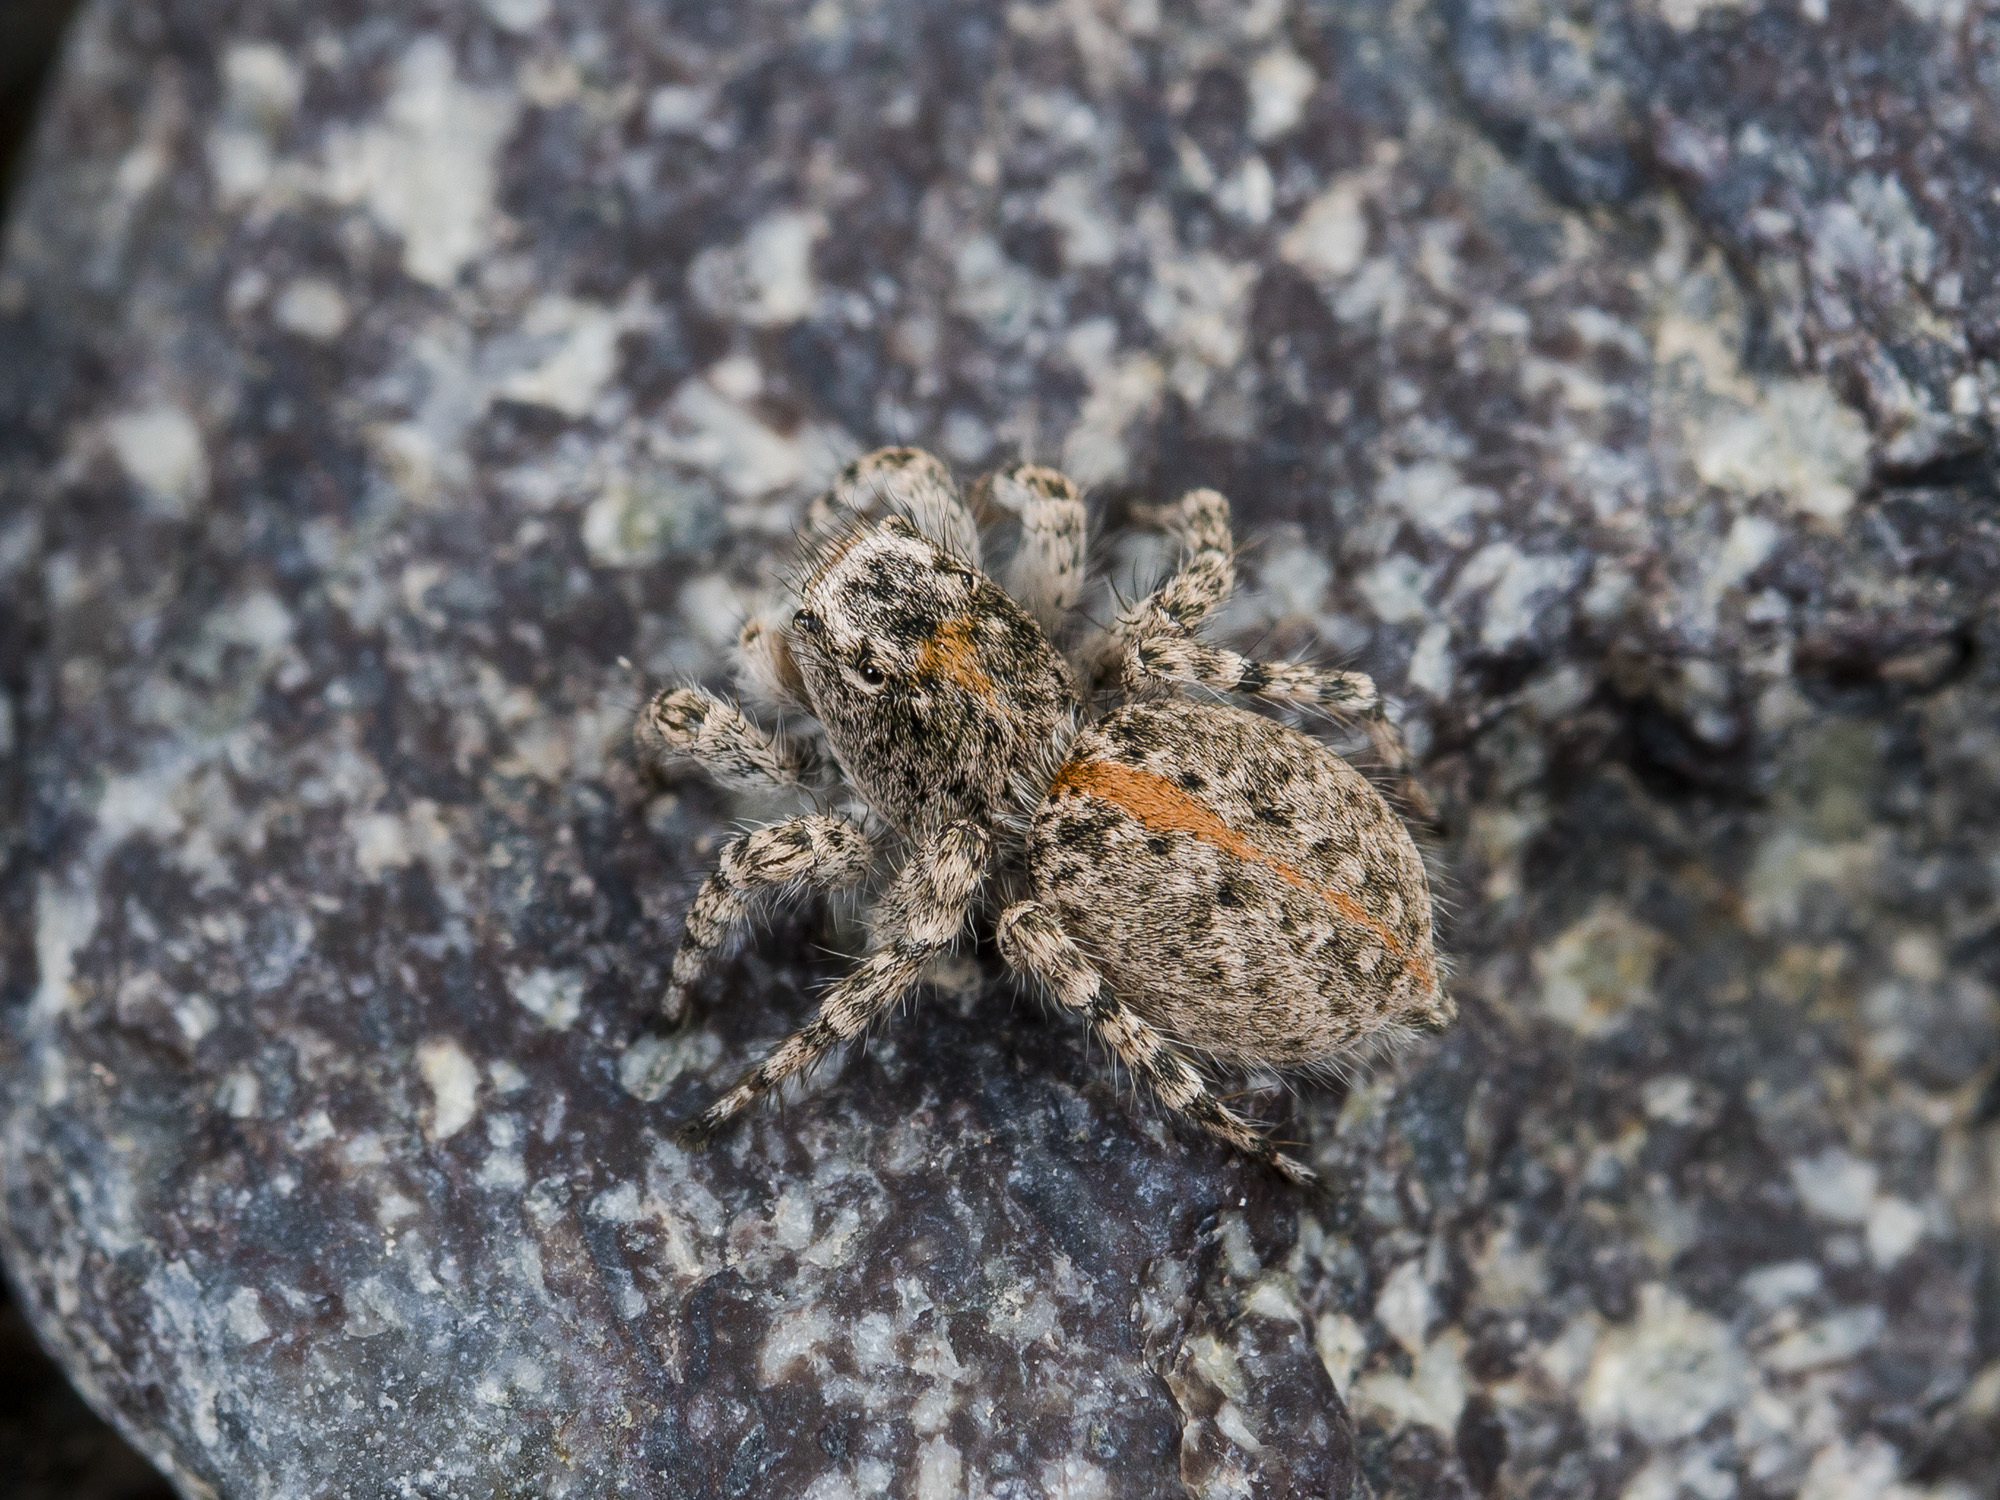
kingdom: Animalia
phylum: Arthropoda
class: Arachnida
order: Araneae
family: Salticidae
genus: Aelurillus
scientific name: Aelurillus dubatolovi
